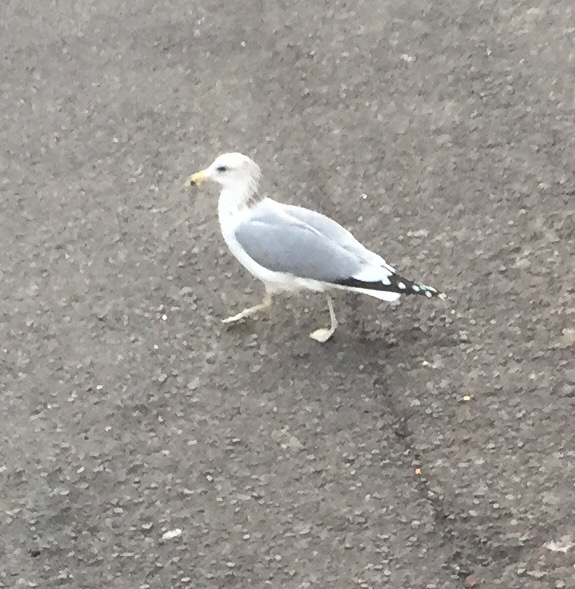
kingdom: Animalia
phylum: Chordata
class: Aves
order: Charadriiformes
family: Laridae
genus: Larus
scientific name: Larus californicus
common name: California gull
